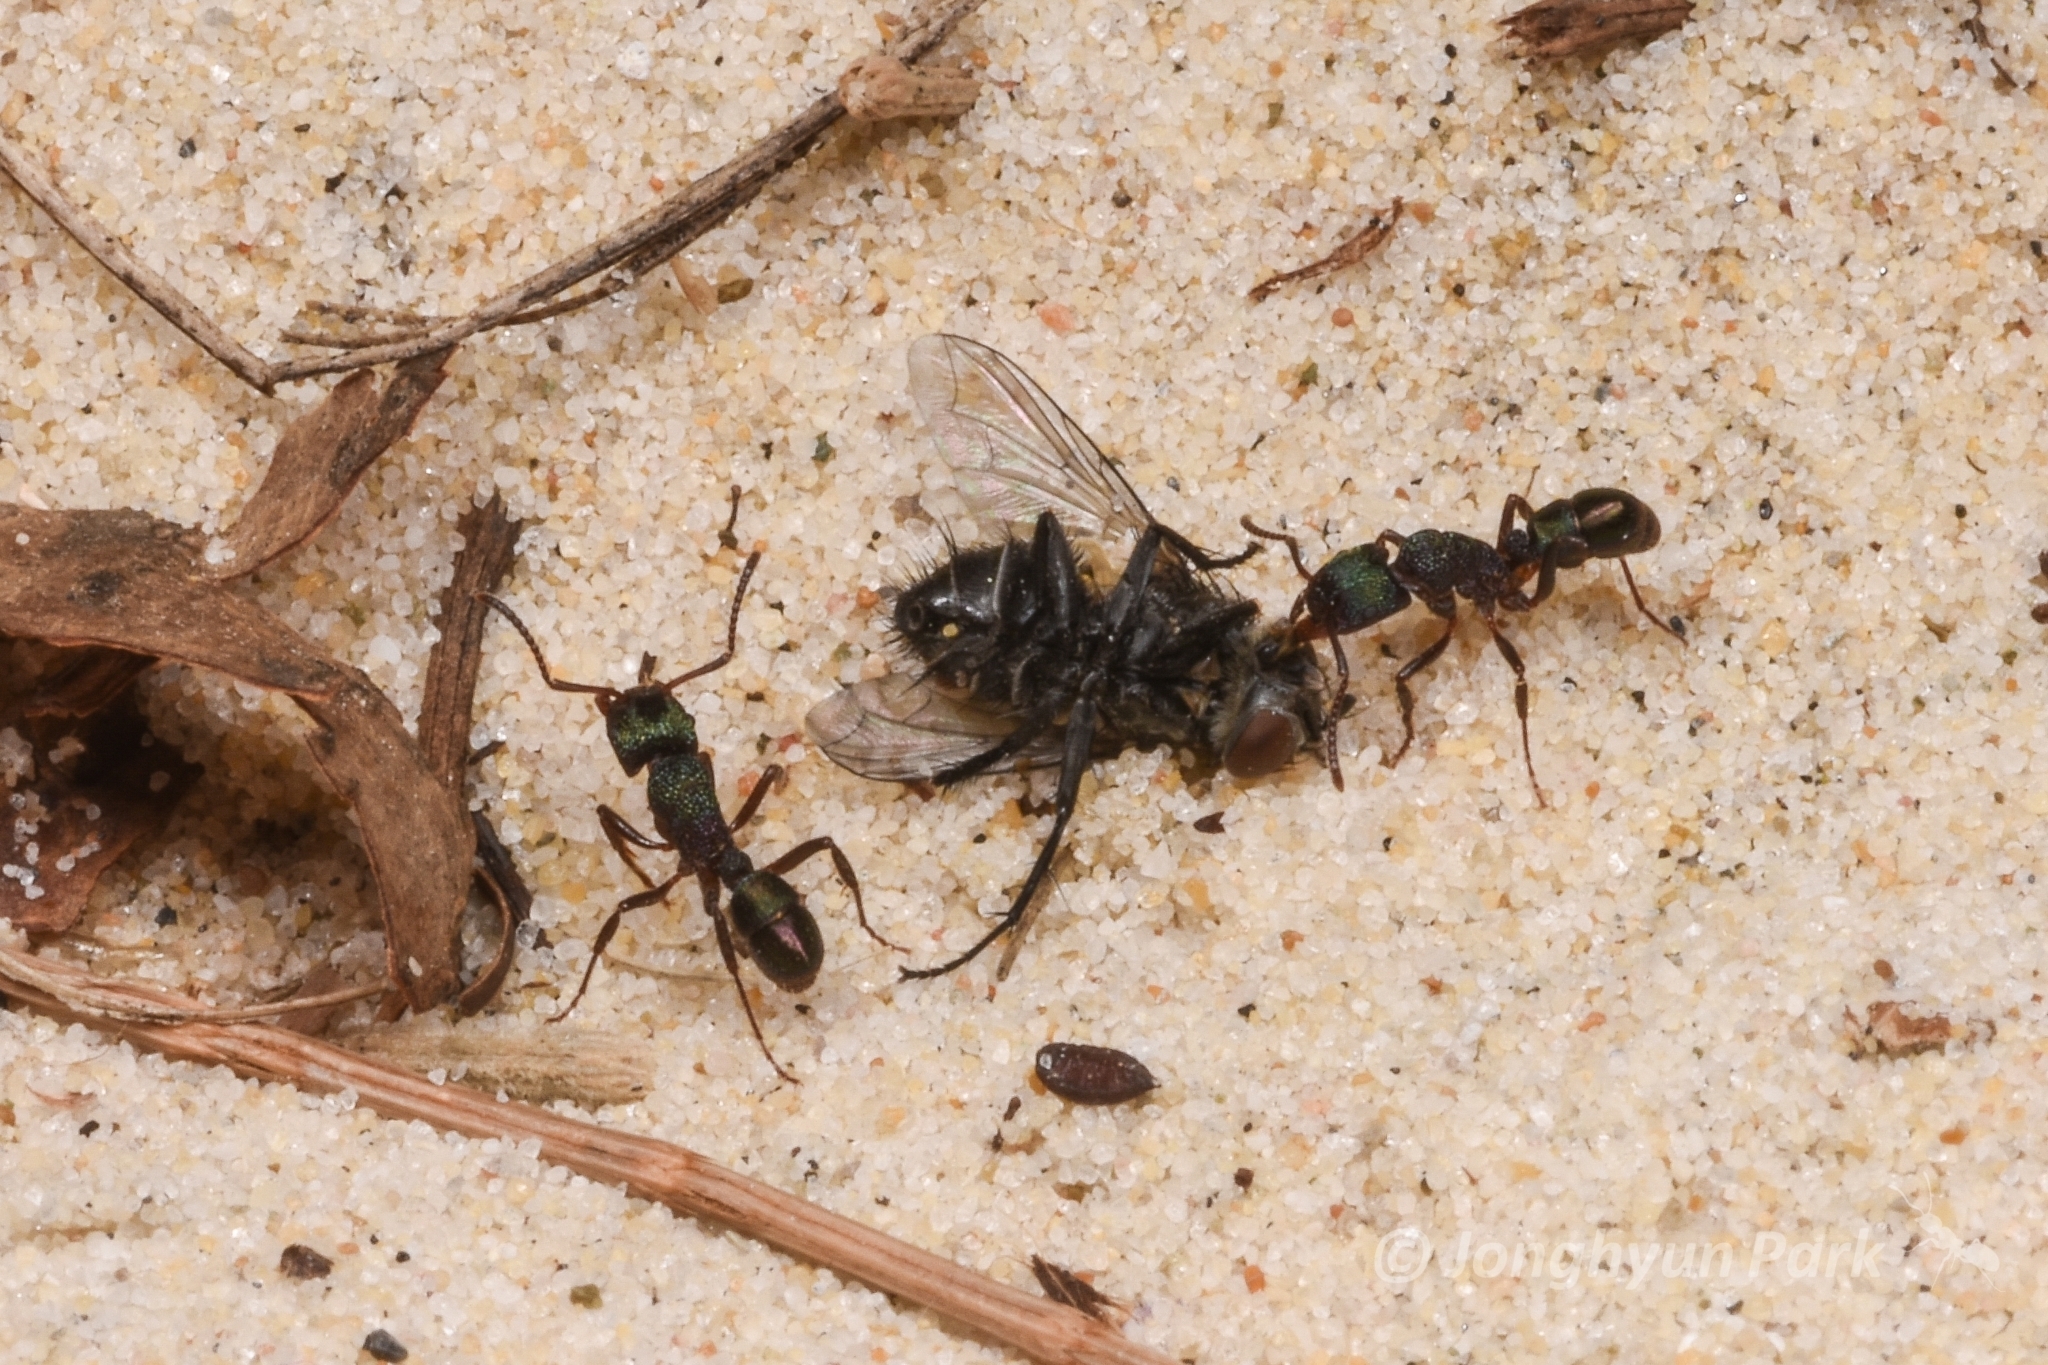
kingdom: Animalia
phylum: Arthropoda
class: Insecta
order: Hymenoptera
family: Formicidae
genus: Rhytidoponera
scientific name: Rhytidoponera metallica
